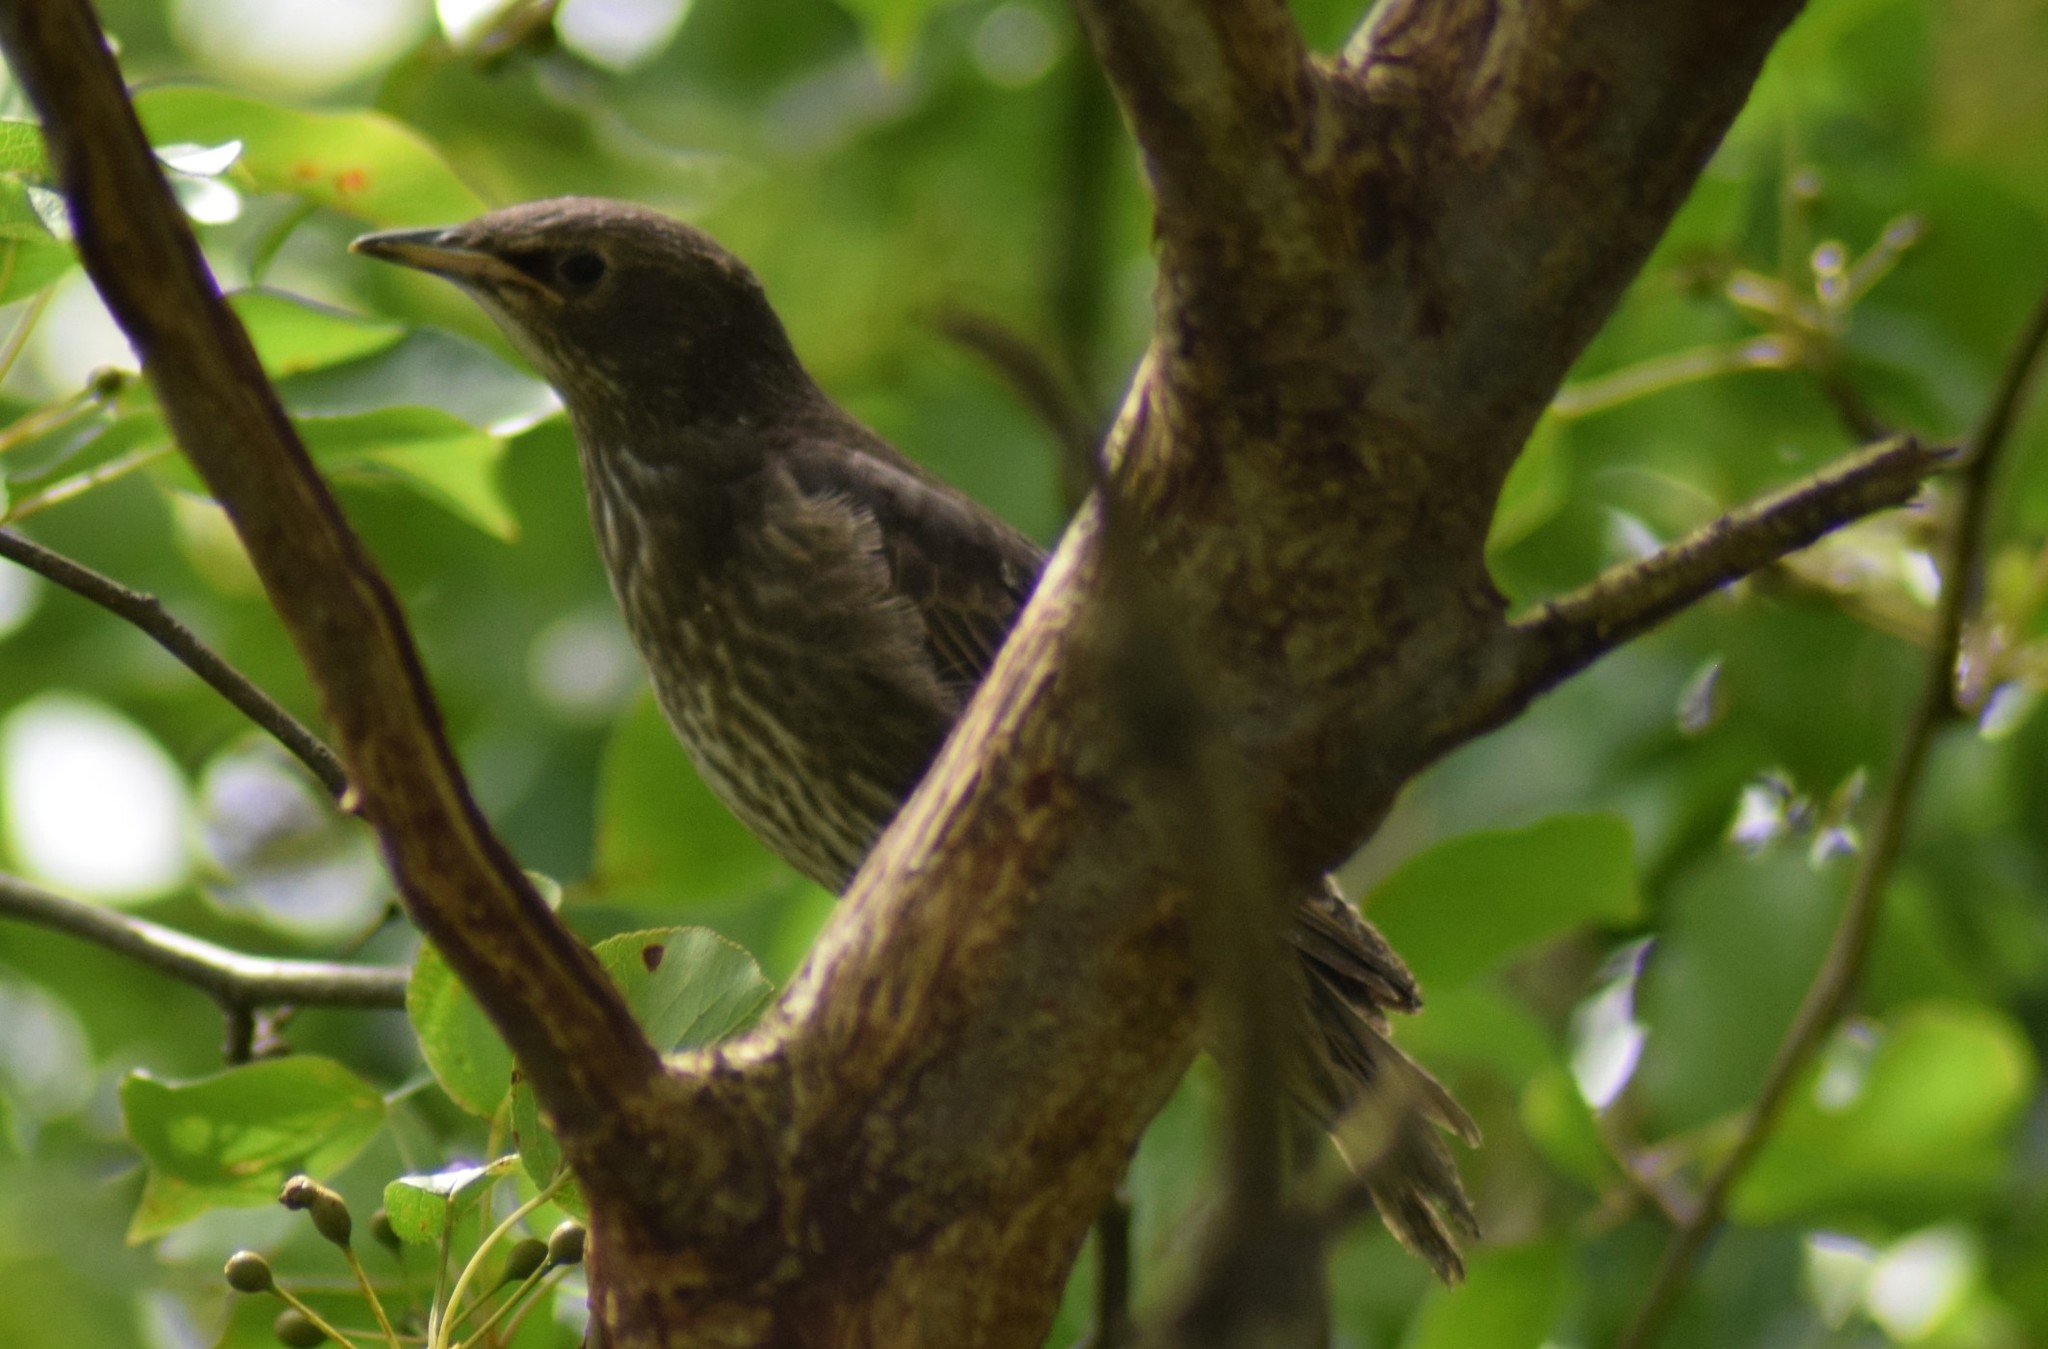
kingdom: Animalia
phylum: Chordata
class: Aves
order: Passeriformes
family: Sturnidae
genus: Sturnus
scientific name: Sturnus vulgaris
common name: Common starling
